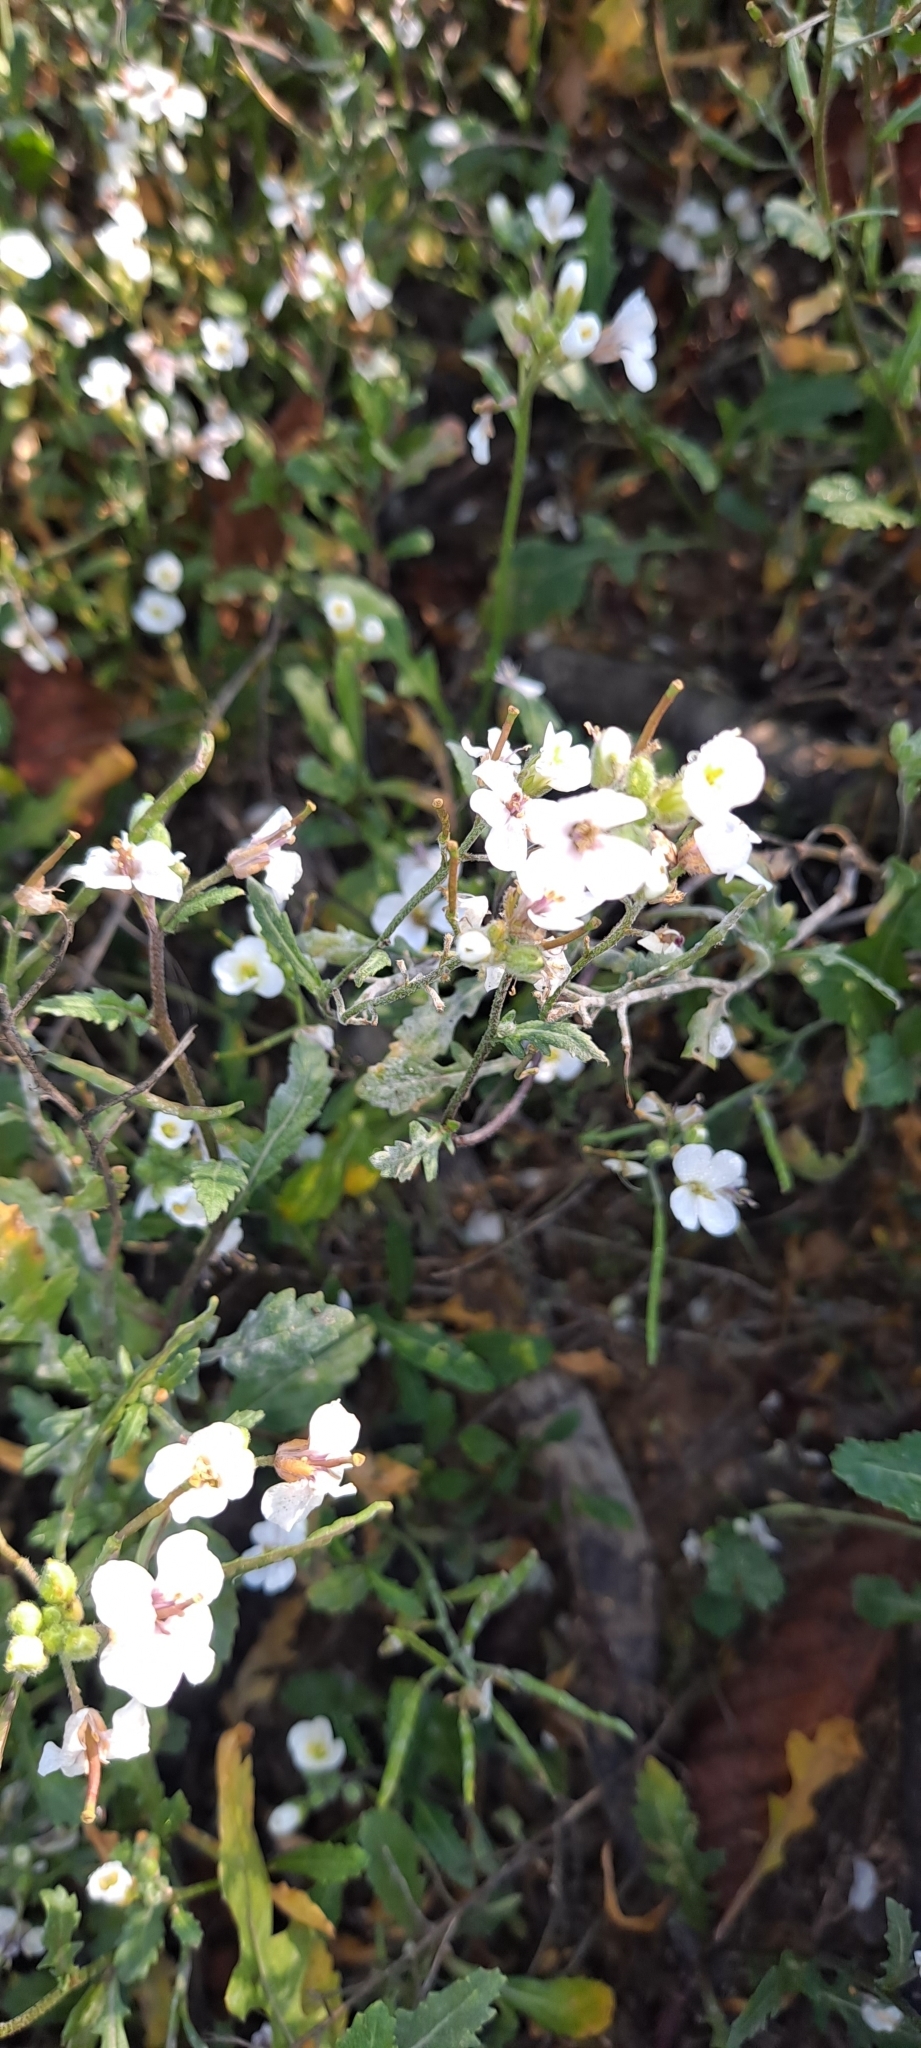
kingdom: Plantae
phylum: Tracheophyta
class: Magnoliopsida
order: Brassicales
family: Brassicaceae
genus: Diplotaxis
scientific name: Diplotaxis erucoides
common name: White rocket
